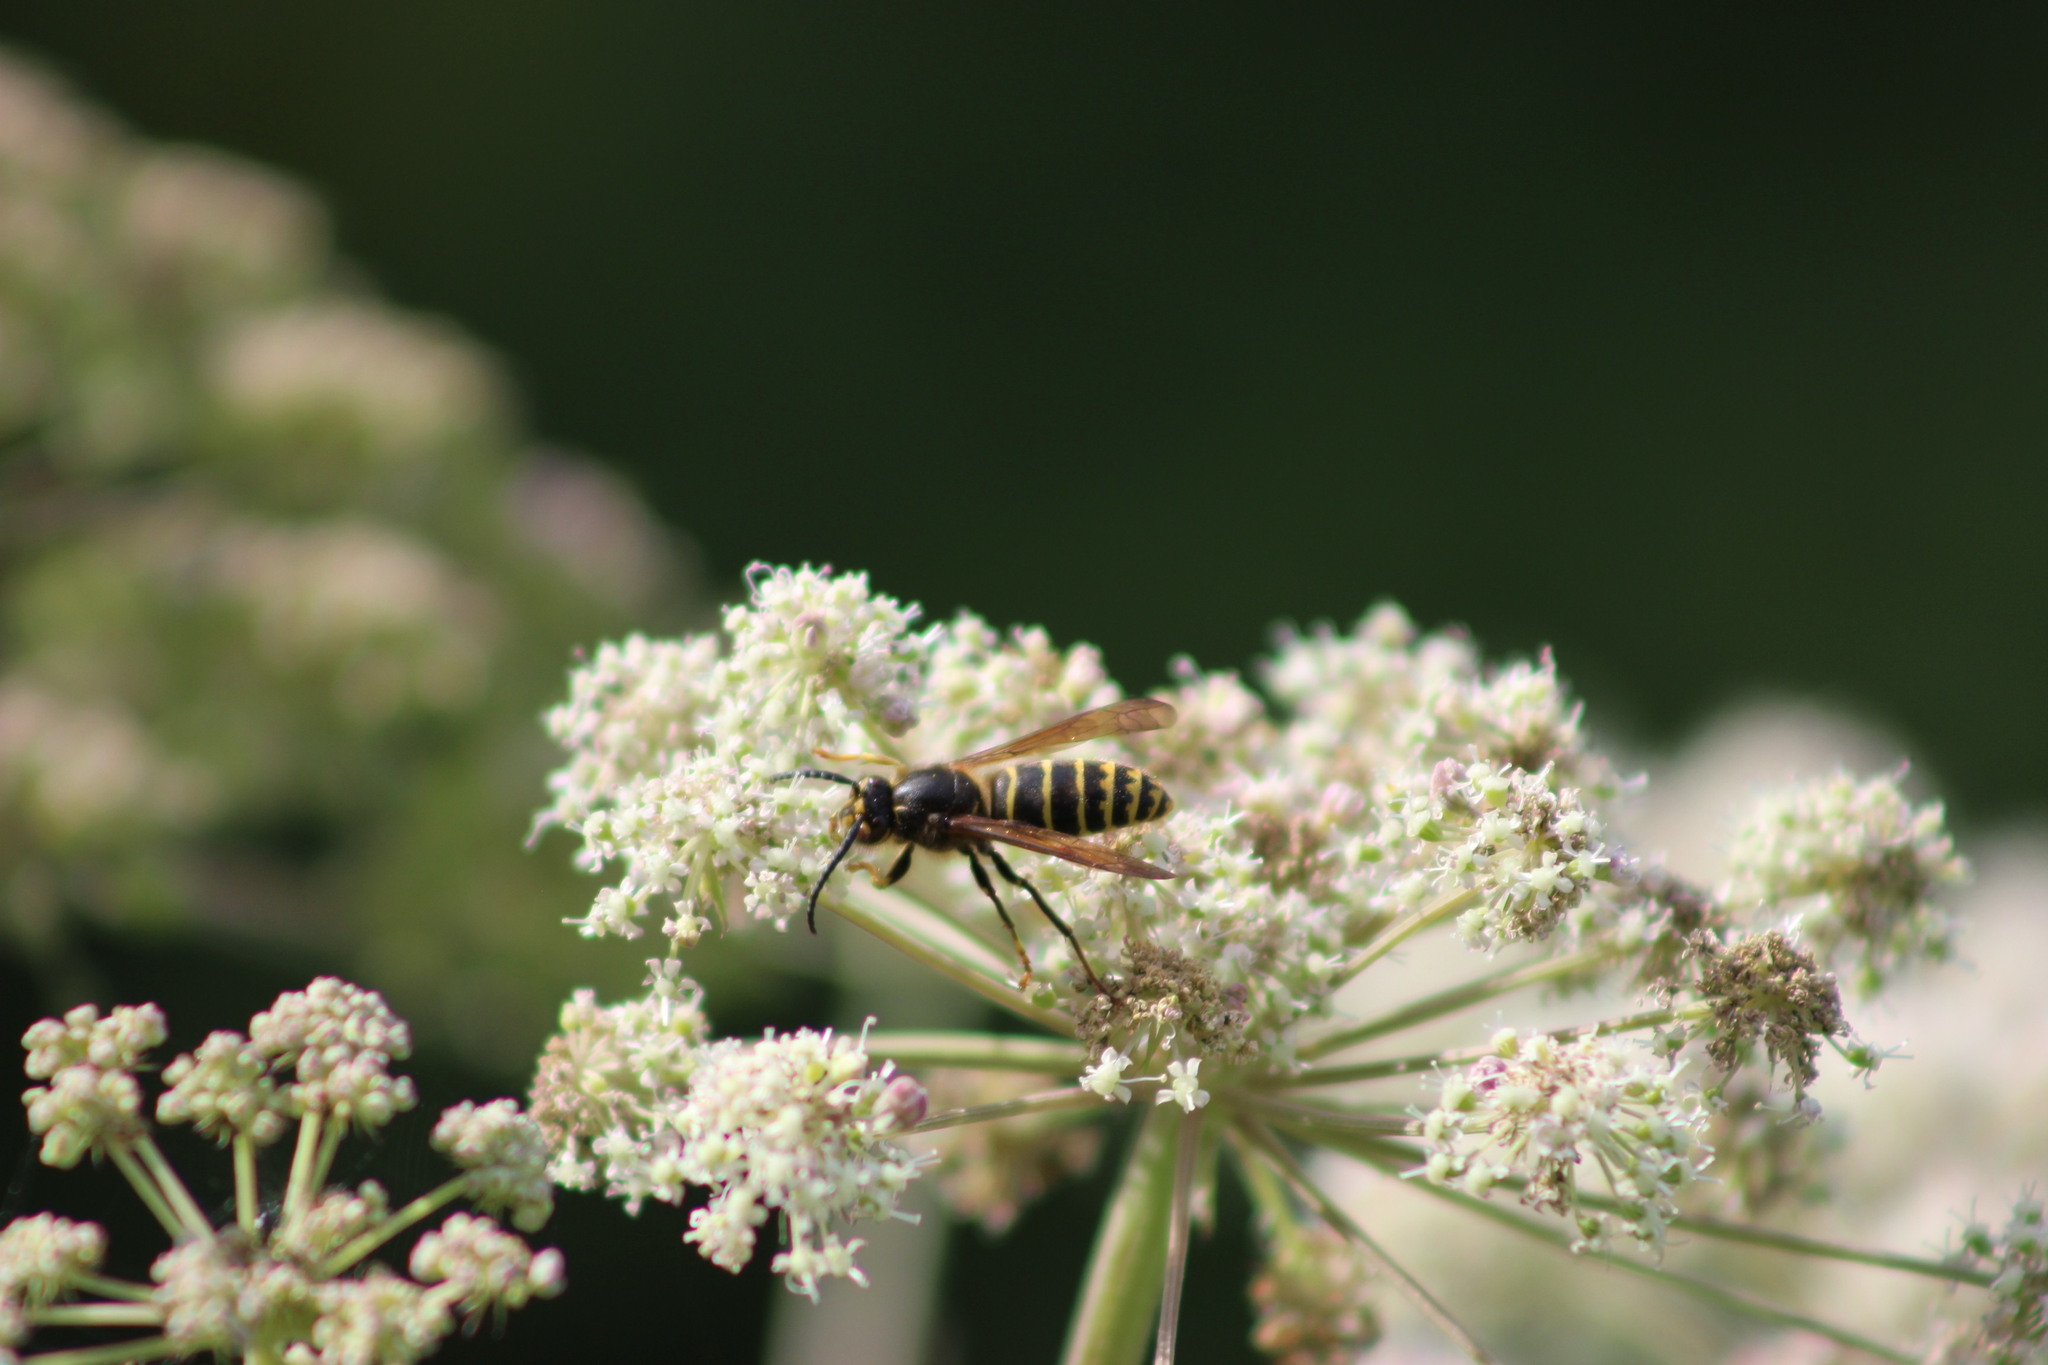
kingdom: Animalia
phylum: Arthropoda
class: Insecta
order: Hymenoptera
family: Vespidae
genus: Dolichovespula
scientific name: Dolichovespula media
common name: Median wasp
